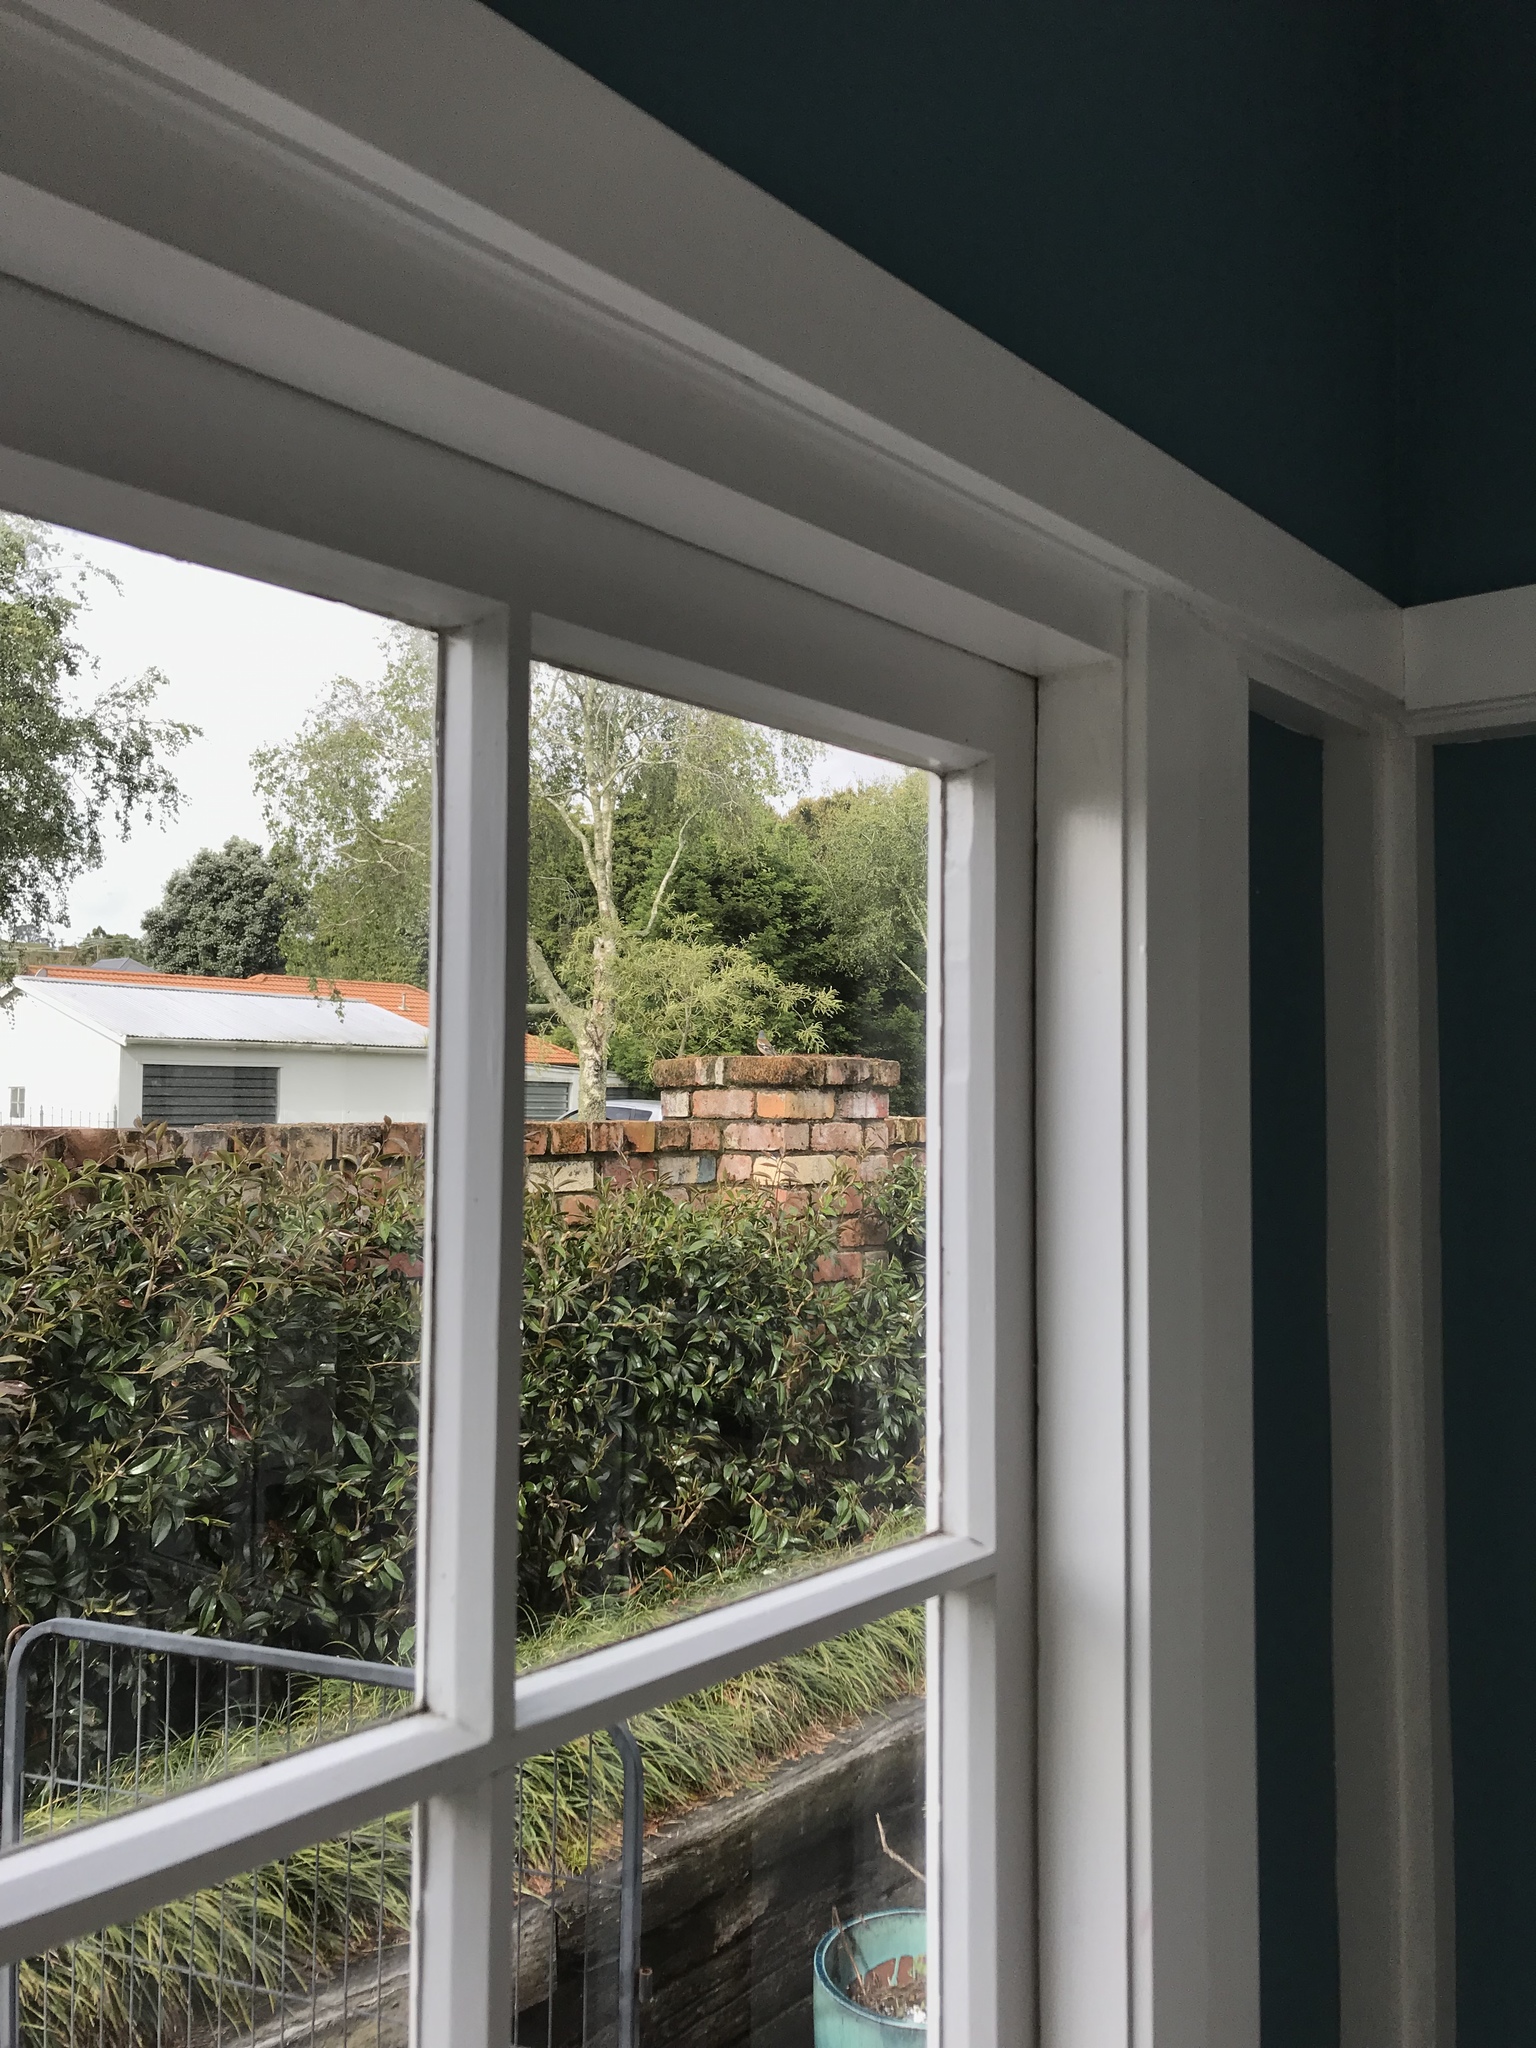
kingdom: Animalia
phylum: Chordata
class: Aves
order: Passeriformes
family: Fringillidae
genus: Fringilla
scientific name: Fringilla coelebs
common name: Common chaffinch
